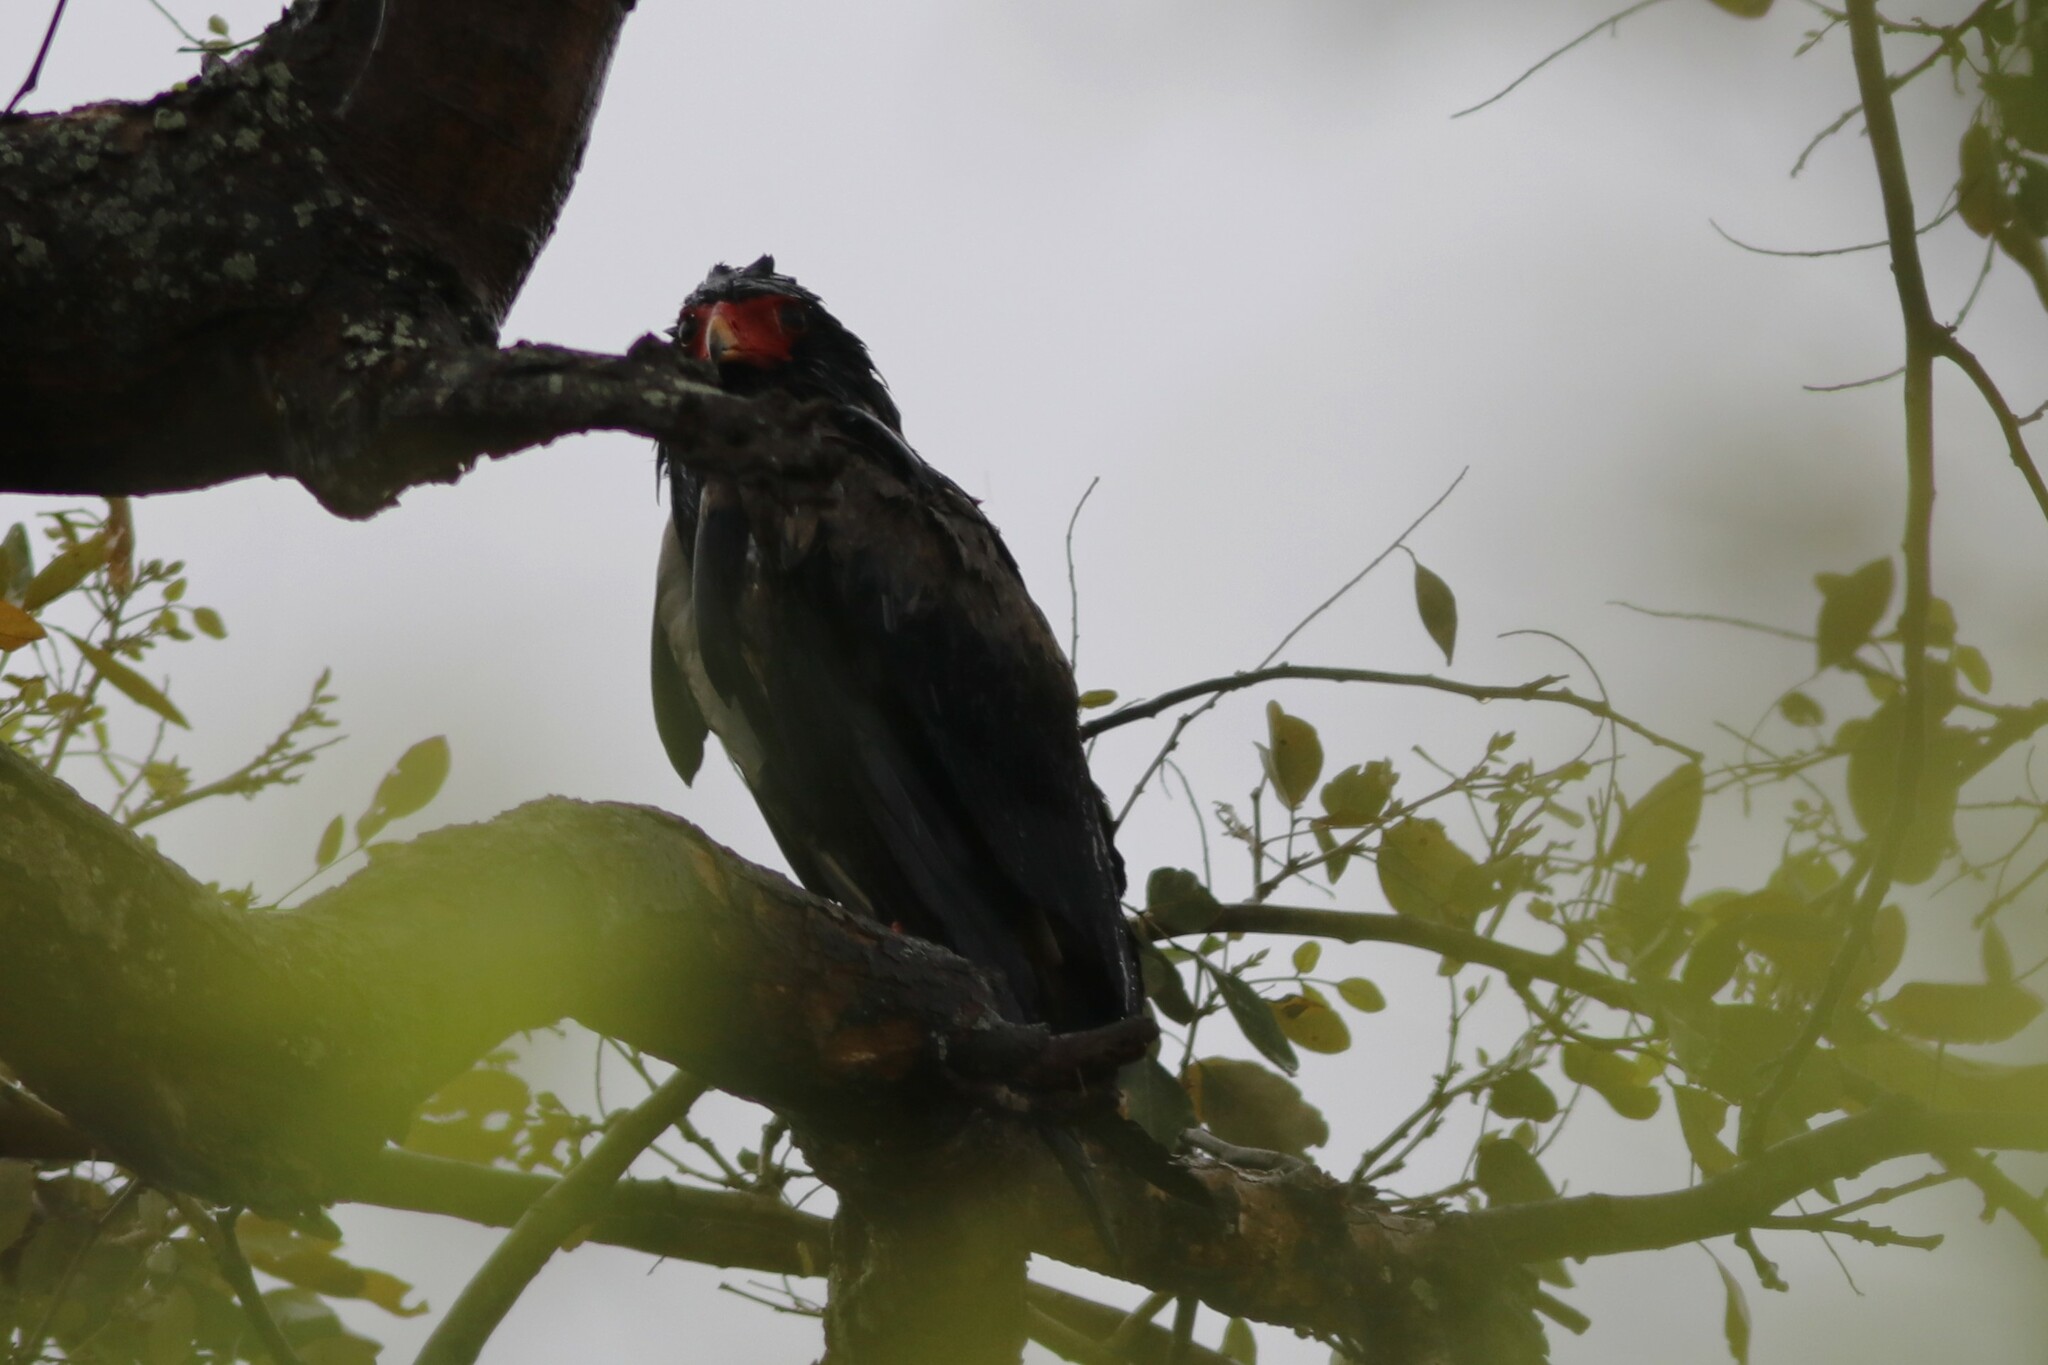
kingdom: Animalia
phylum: Chordata
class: Aves
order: Accipitriformes
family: Accipitridae
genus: Terathopius
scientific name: Terathopius ecaudatus
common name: Bateleur
